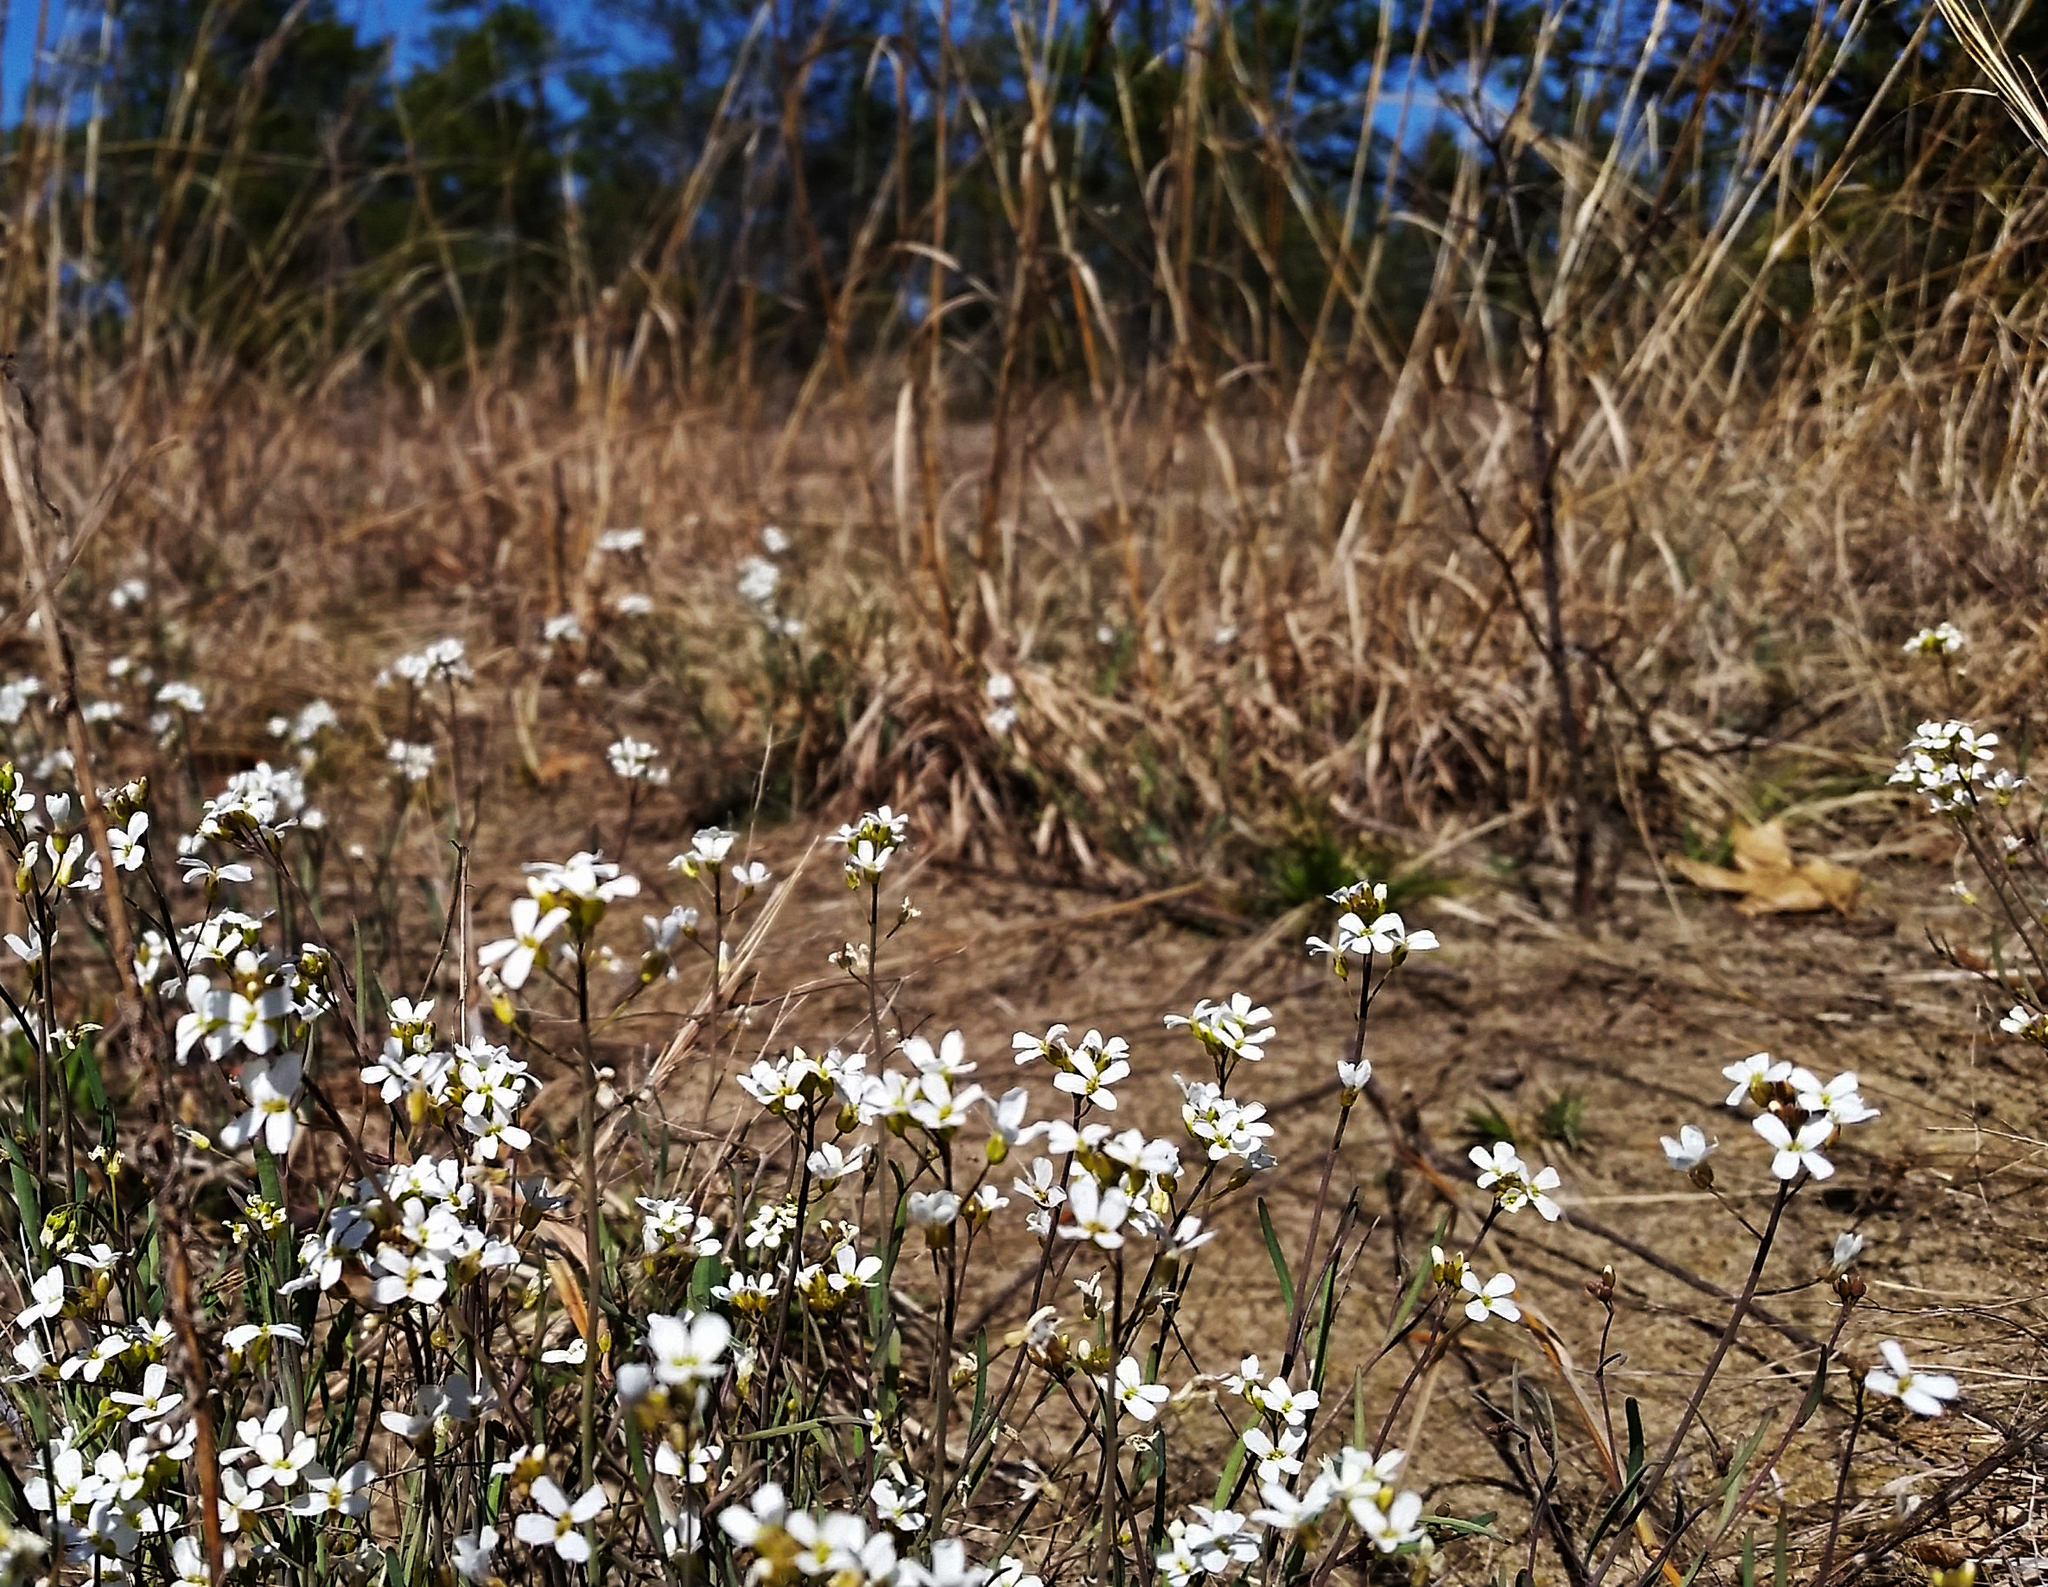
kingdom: Plantae
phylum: Tracheophyta
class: Magnoliopsida
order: Brassicales
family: Brassicaceae
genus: Arabidopsis
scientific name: Arabidopsis lyrata
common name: Lyrate rockcress
